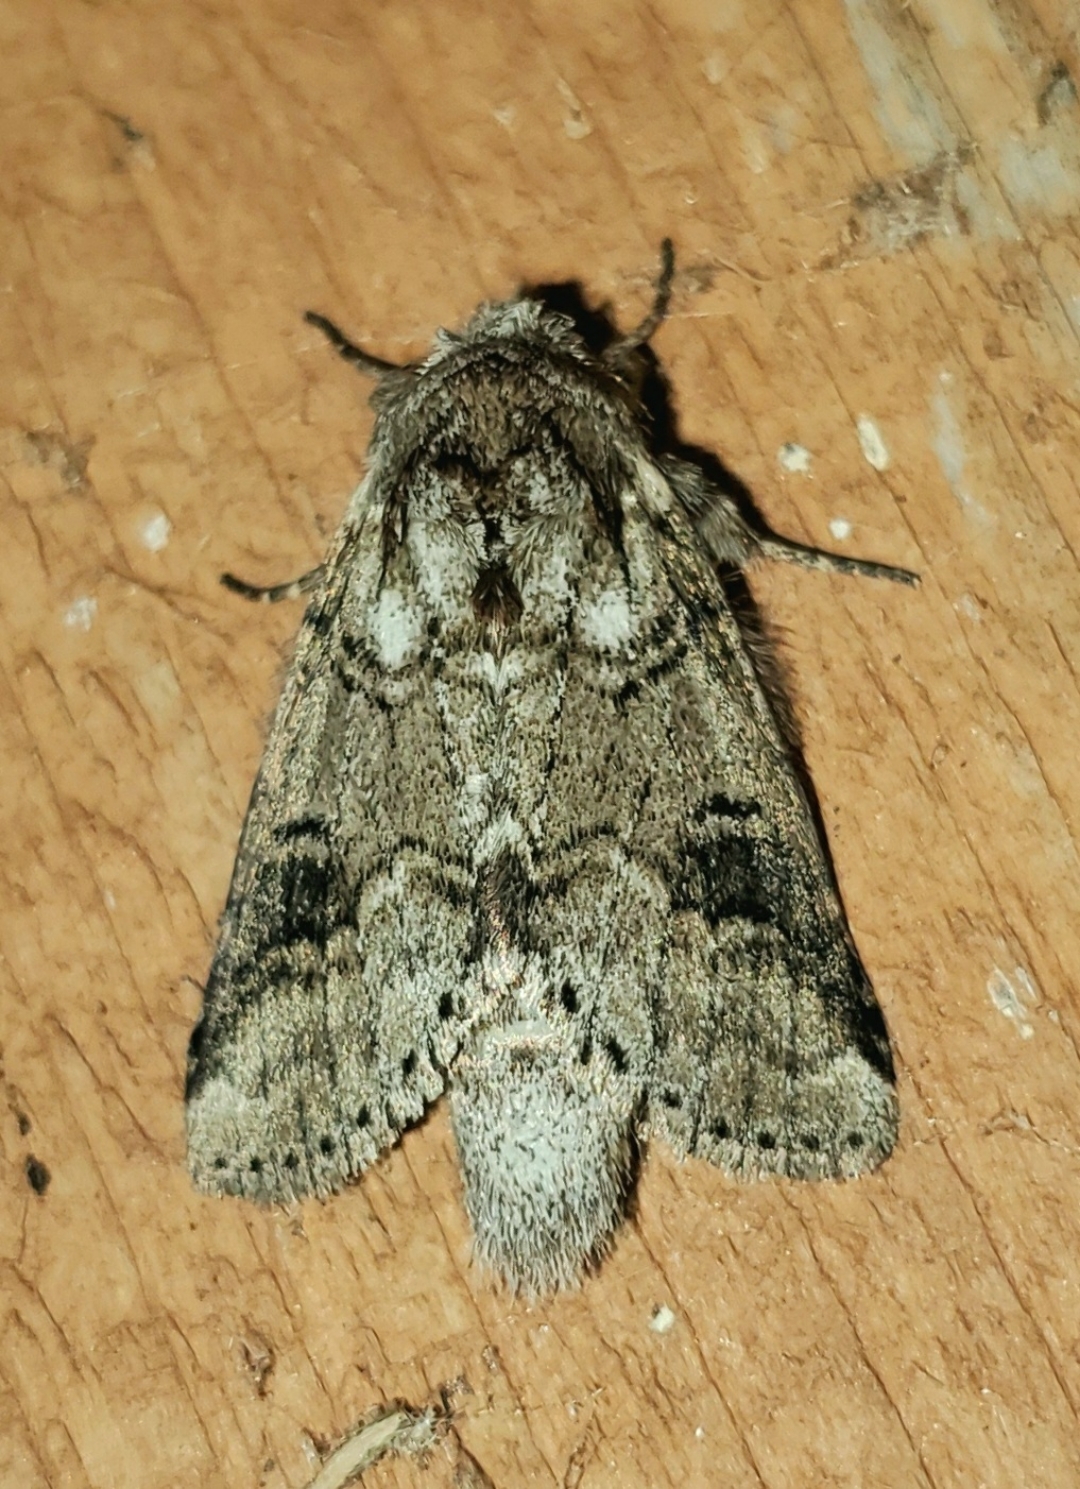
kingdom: Animalia
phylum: Arthropoda
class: Insecta
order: Lepidoptera
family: Notodontidae
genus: Lochmaeus
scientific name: Lochmaeus bilineata
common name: Double-lined prominent
